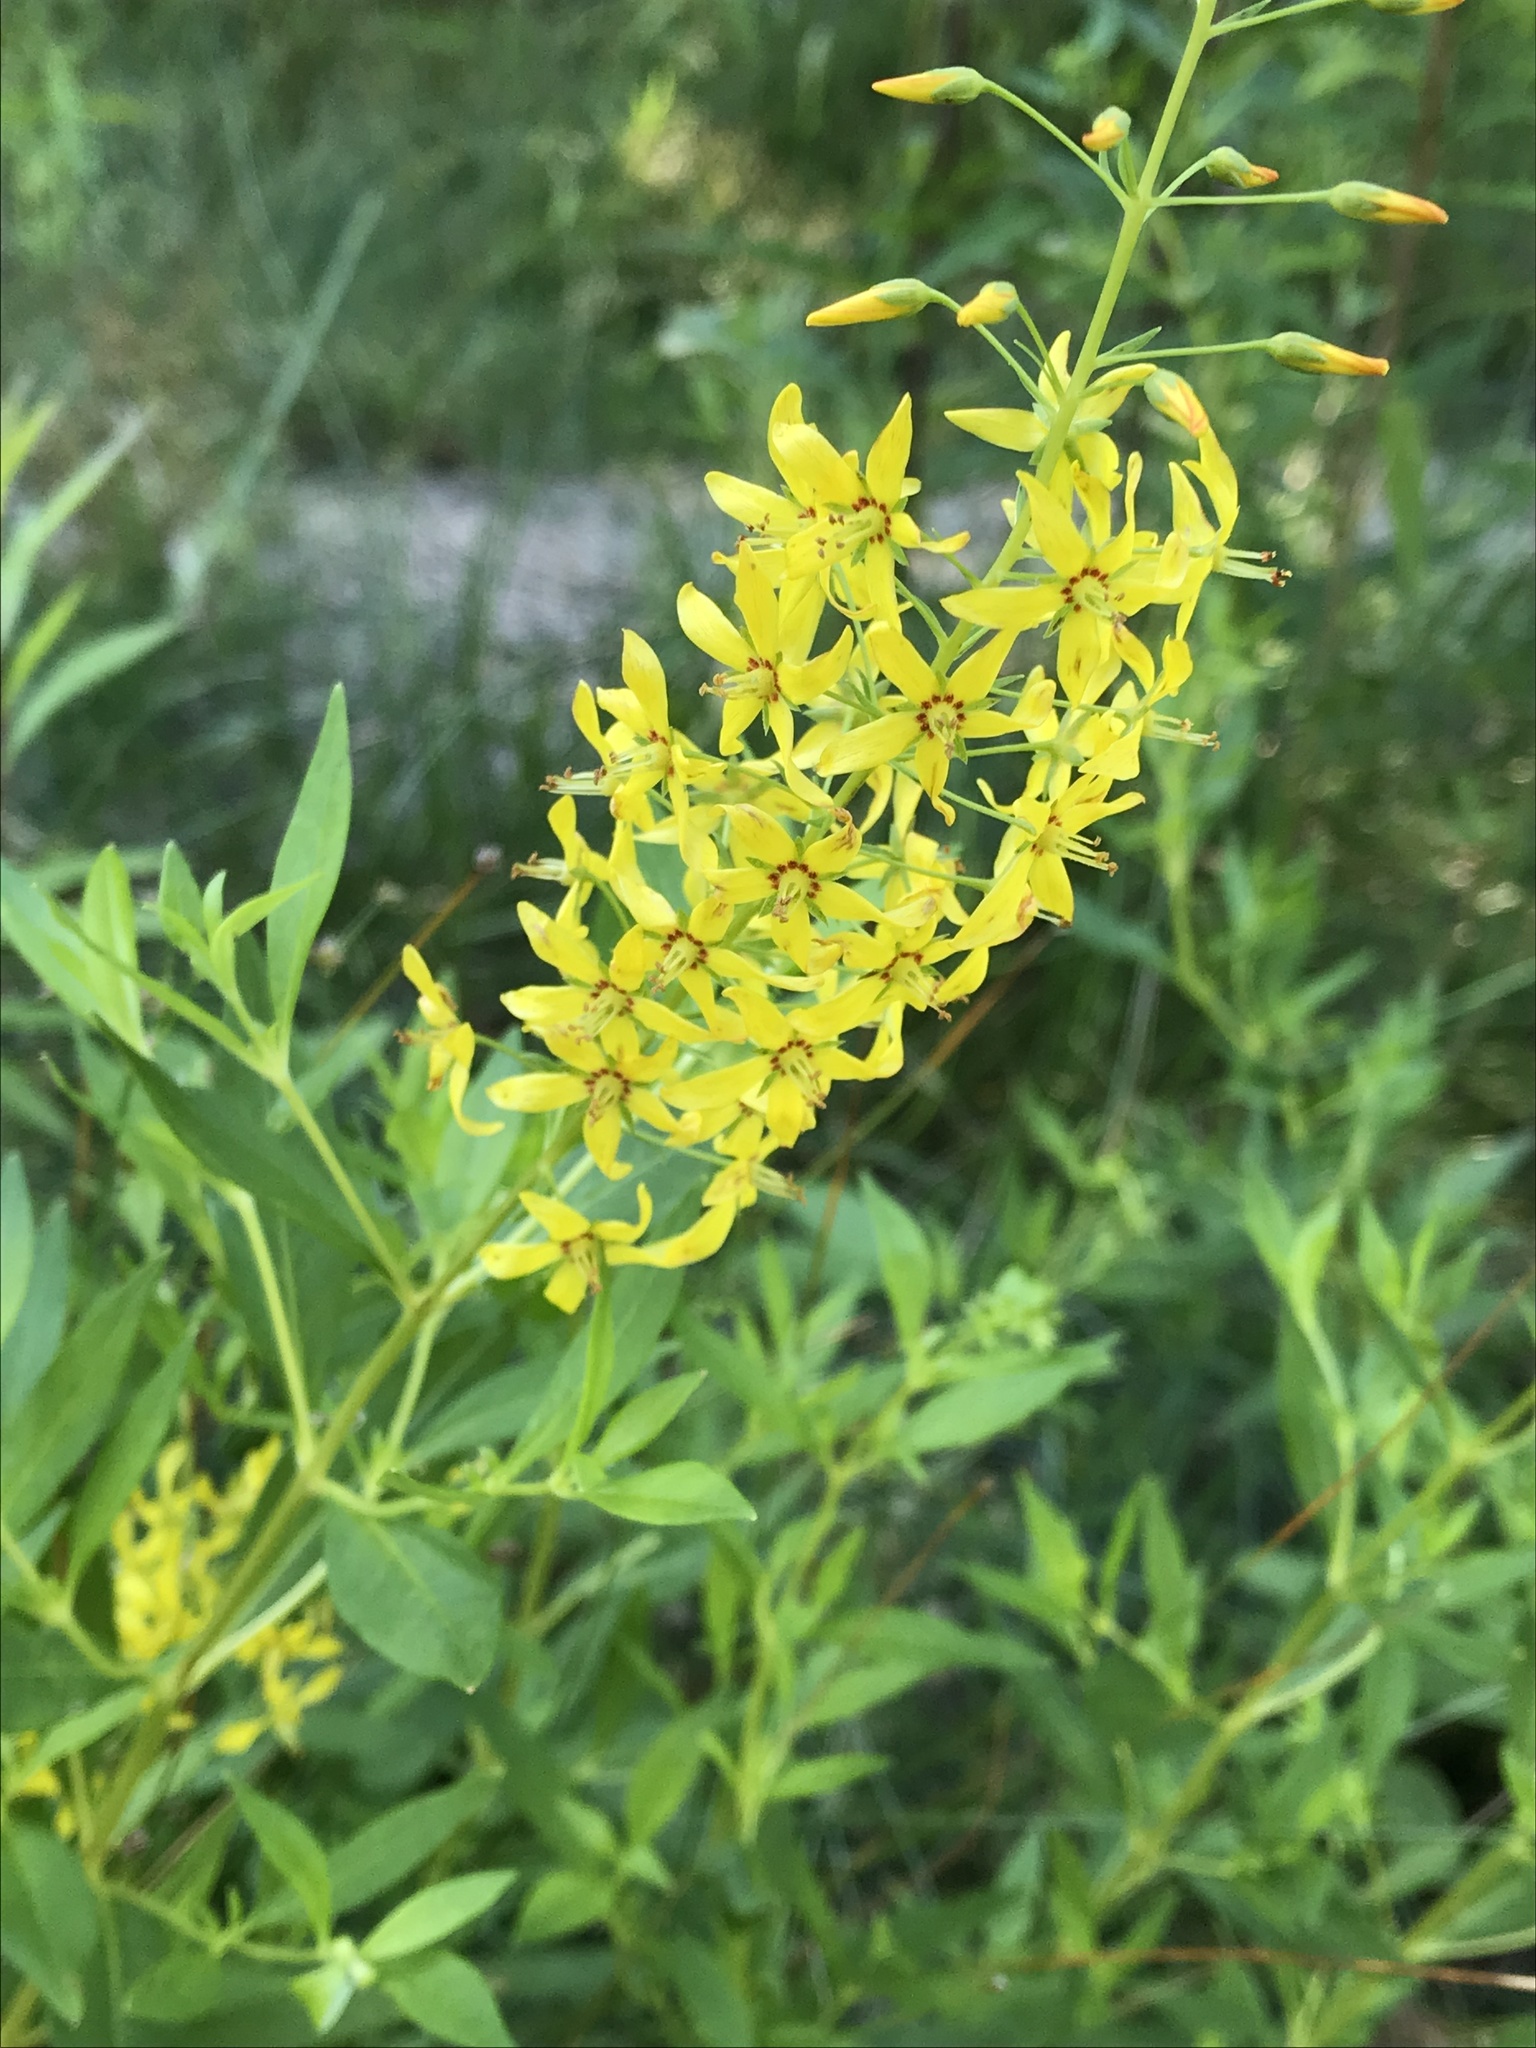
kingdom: Plantae
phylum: Tracheophyta
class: Magnoliopsida
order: Ericales
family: Primulaceae
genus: Lysimachia
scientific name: Lysimachia terrestris
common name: Lake loosestrife
